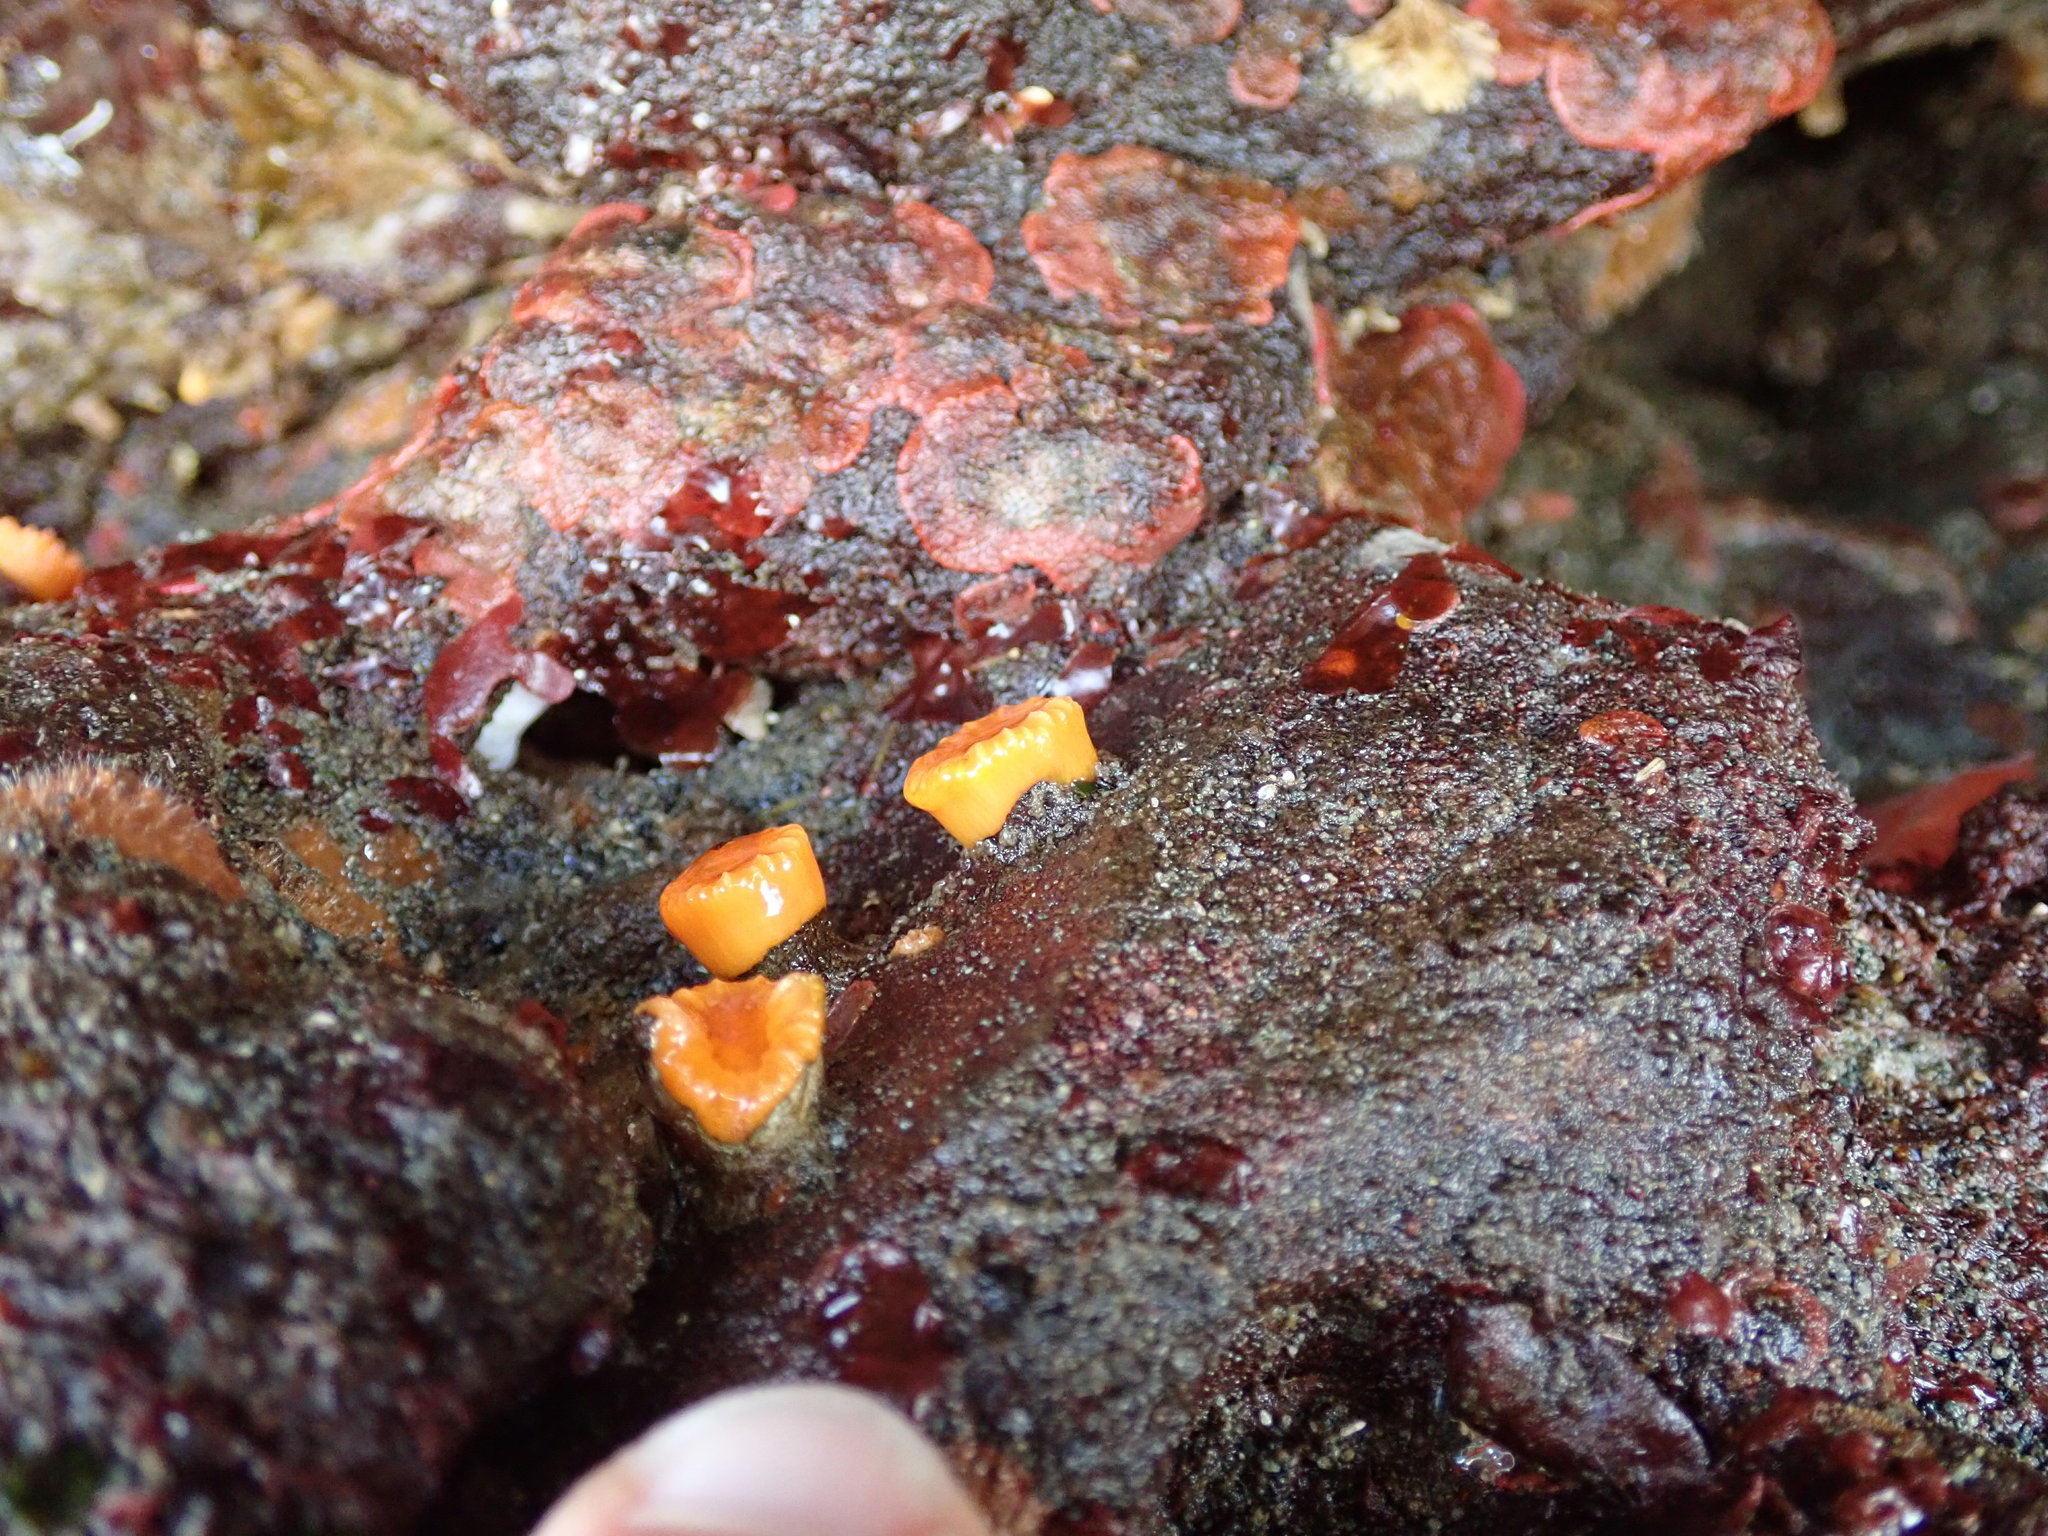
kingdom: Animalia
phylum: Cnidaria
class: Anthozoa
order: Scleractinia
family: Dendrophylliidae
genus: Balanophyllia
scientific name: Balanophyllia elegans
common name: Orange stony coral
